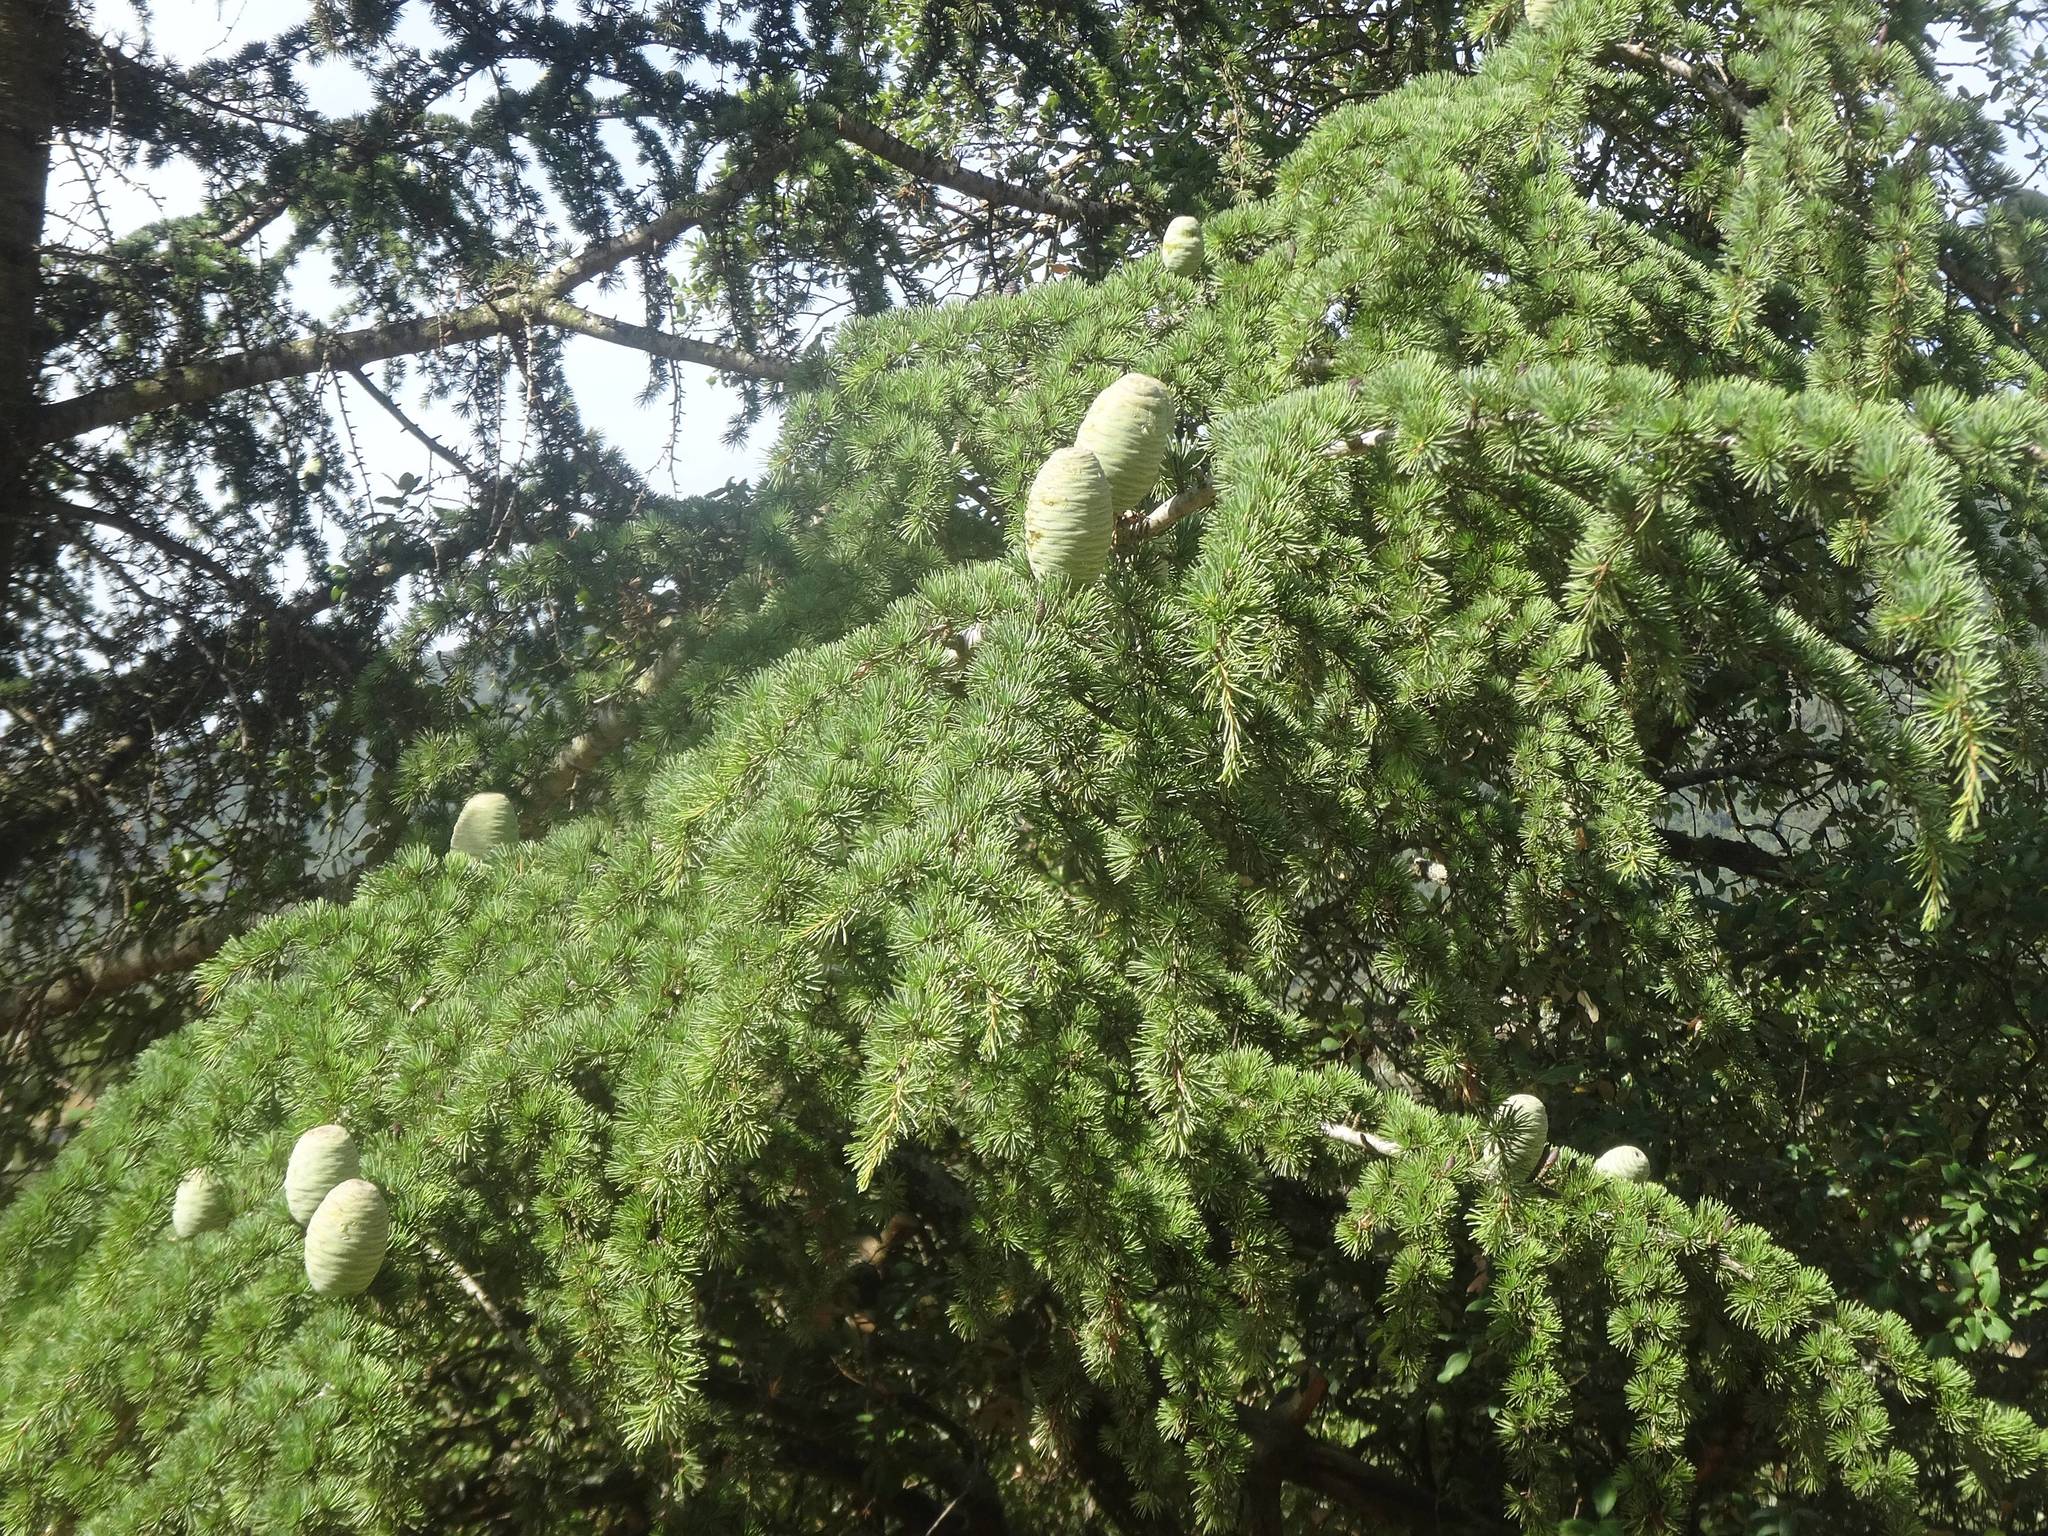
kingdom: Plantae
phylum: Tracheophyta
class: Pinopsida
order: Pinales
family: Pinaceae
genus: Cedrus
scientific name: Cedrus atlantica
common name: Atlas cedar
